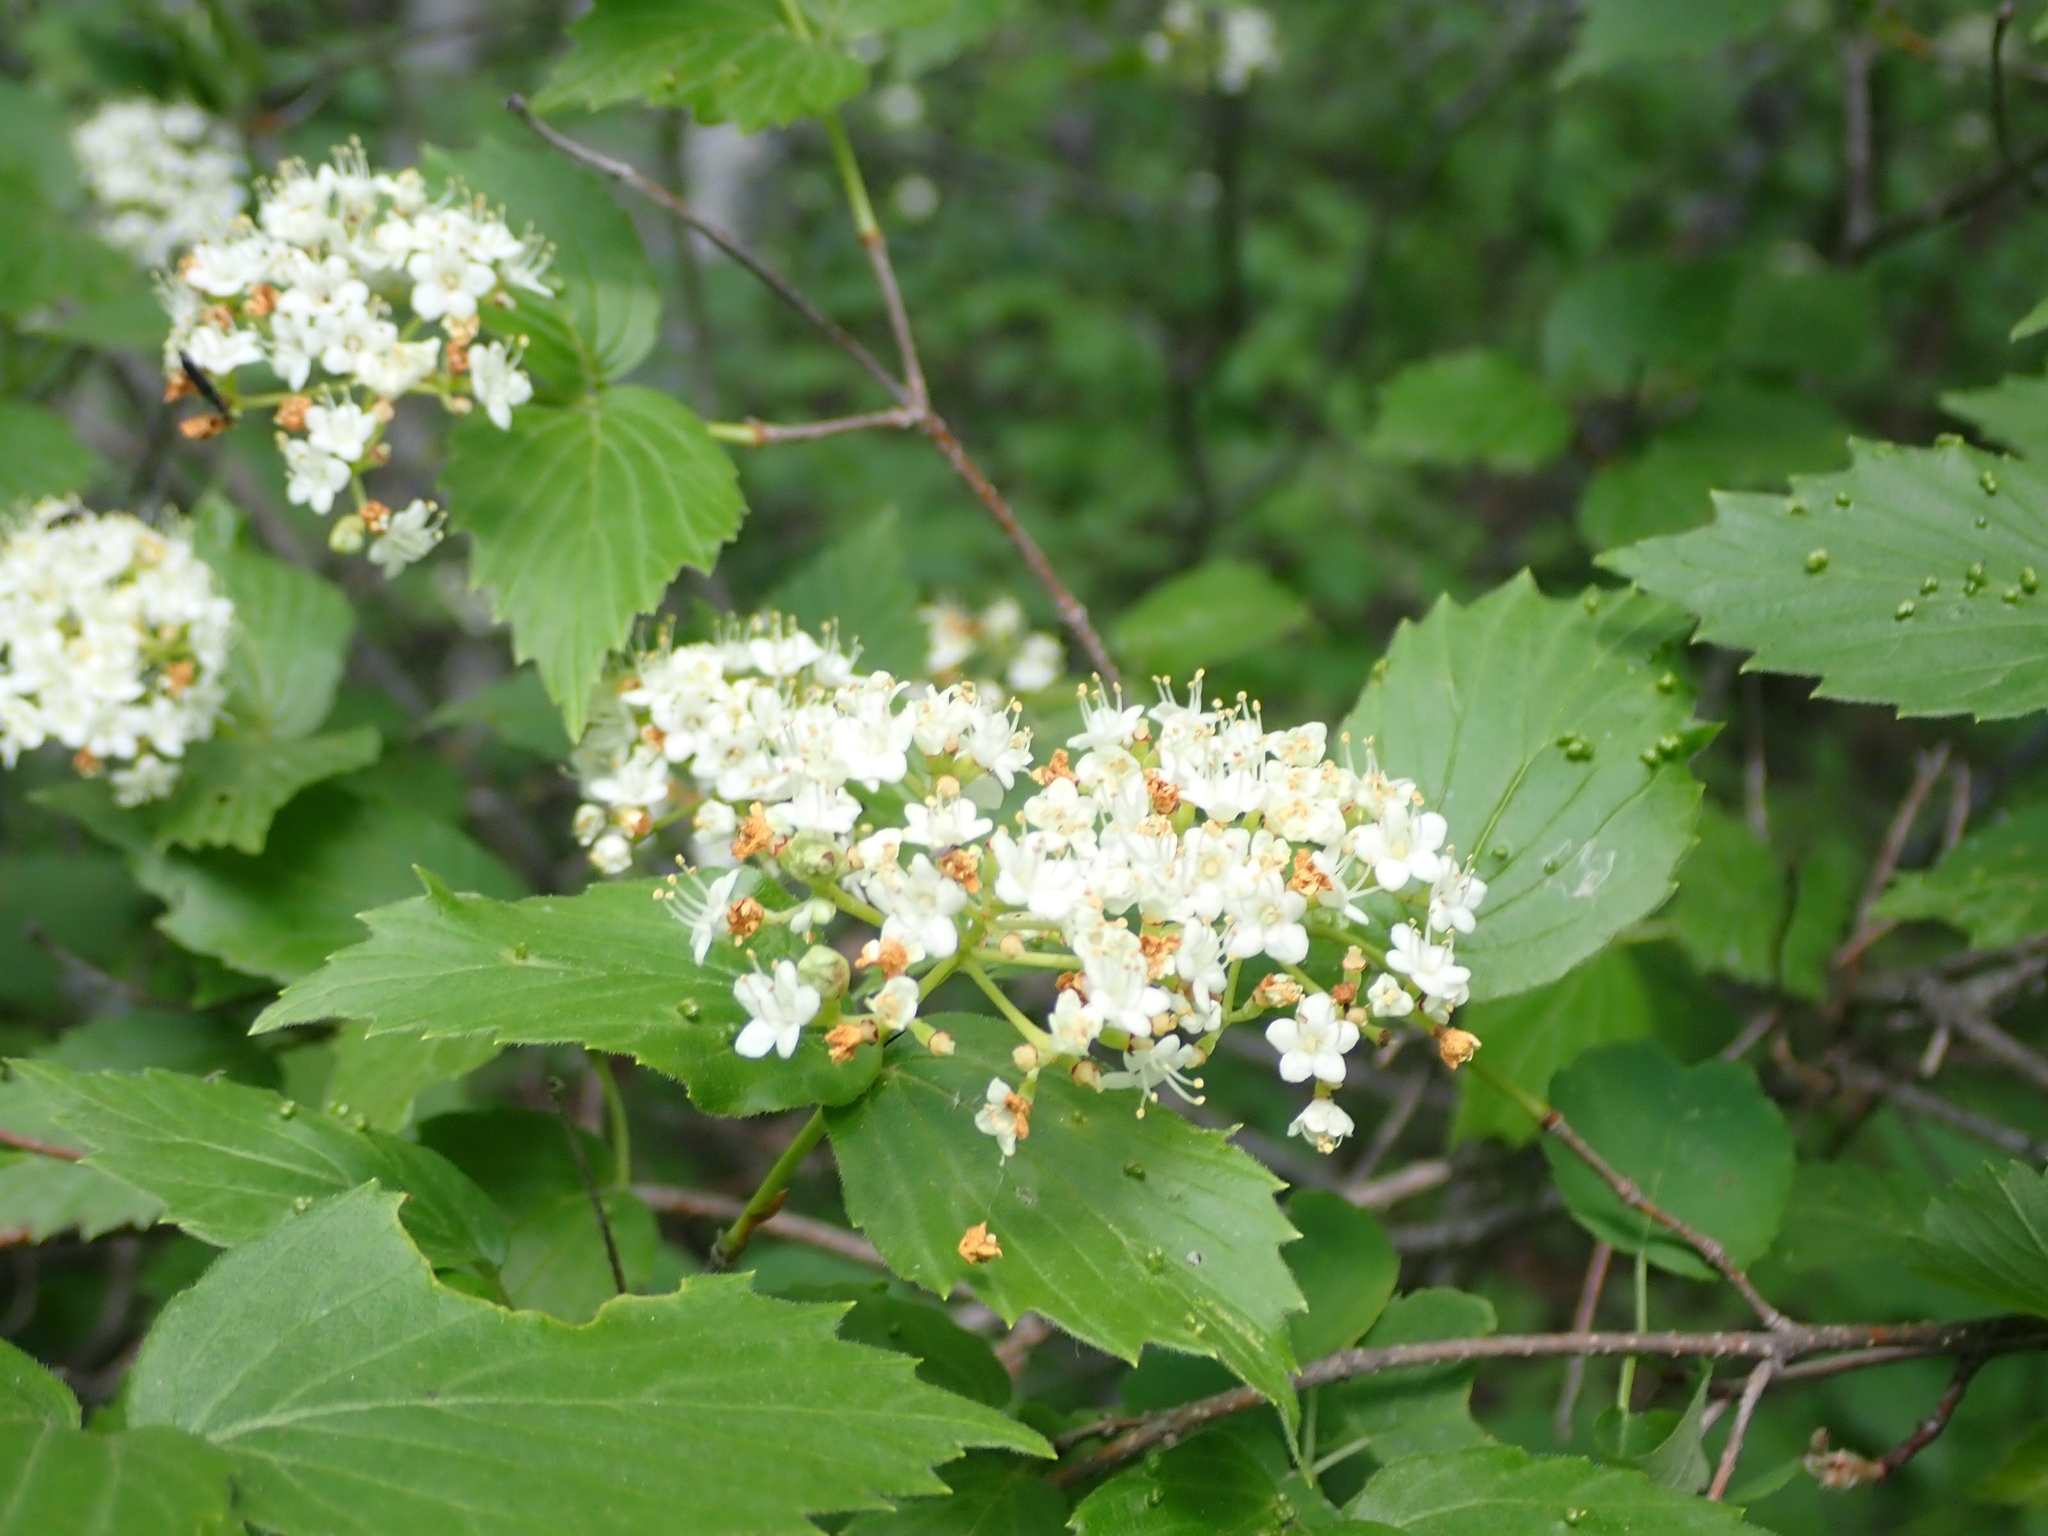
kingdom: Plantae
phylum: Tracheophyta
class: Magnoliopsida
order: Dipsacales
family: Viburnaceae
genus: Viburnum
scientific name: Viburnum rafinesqueanum
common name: Downy arrow-wood
